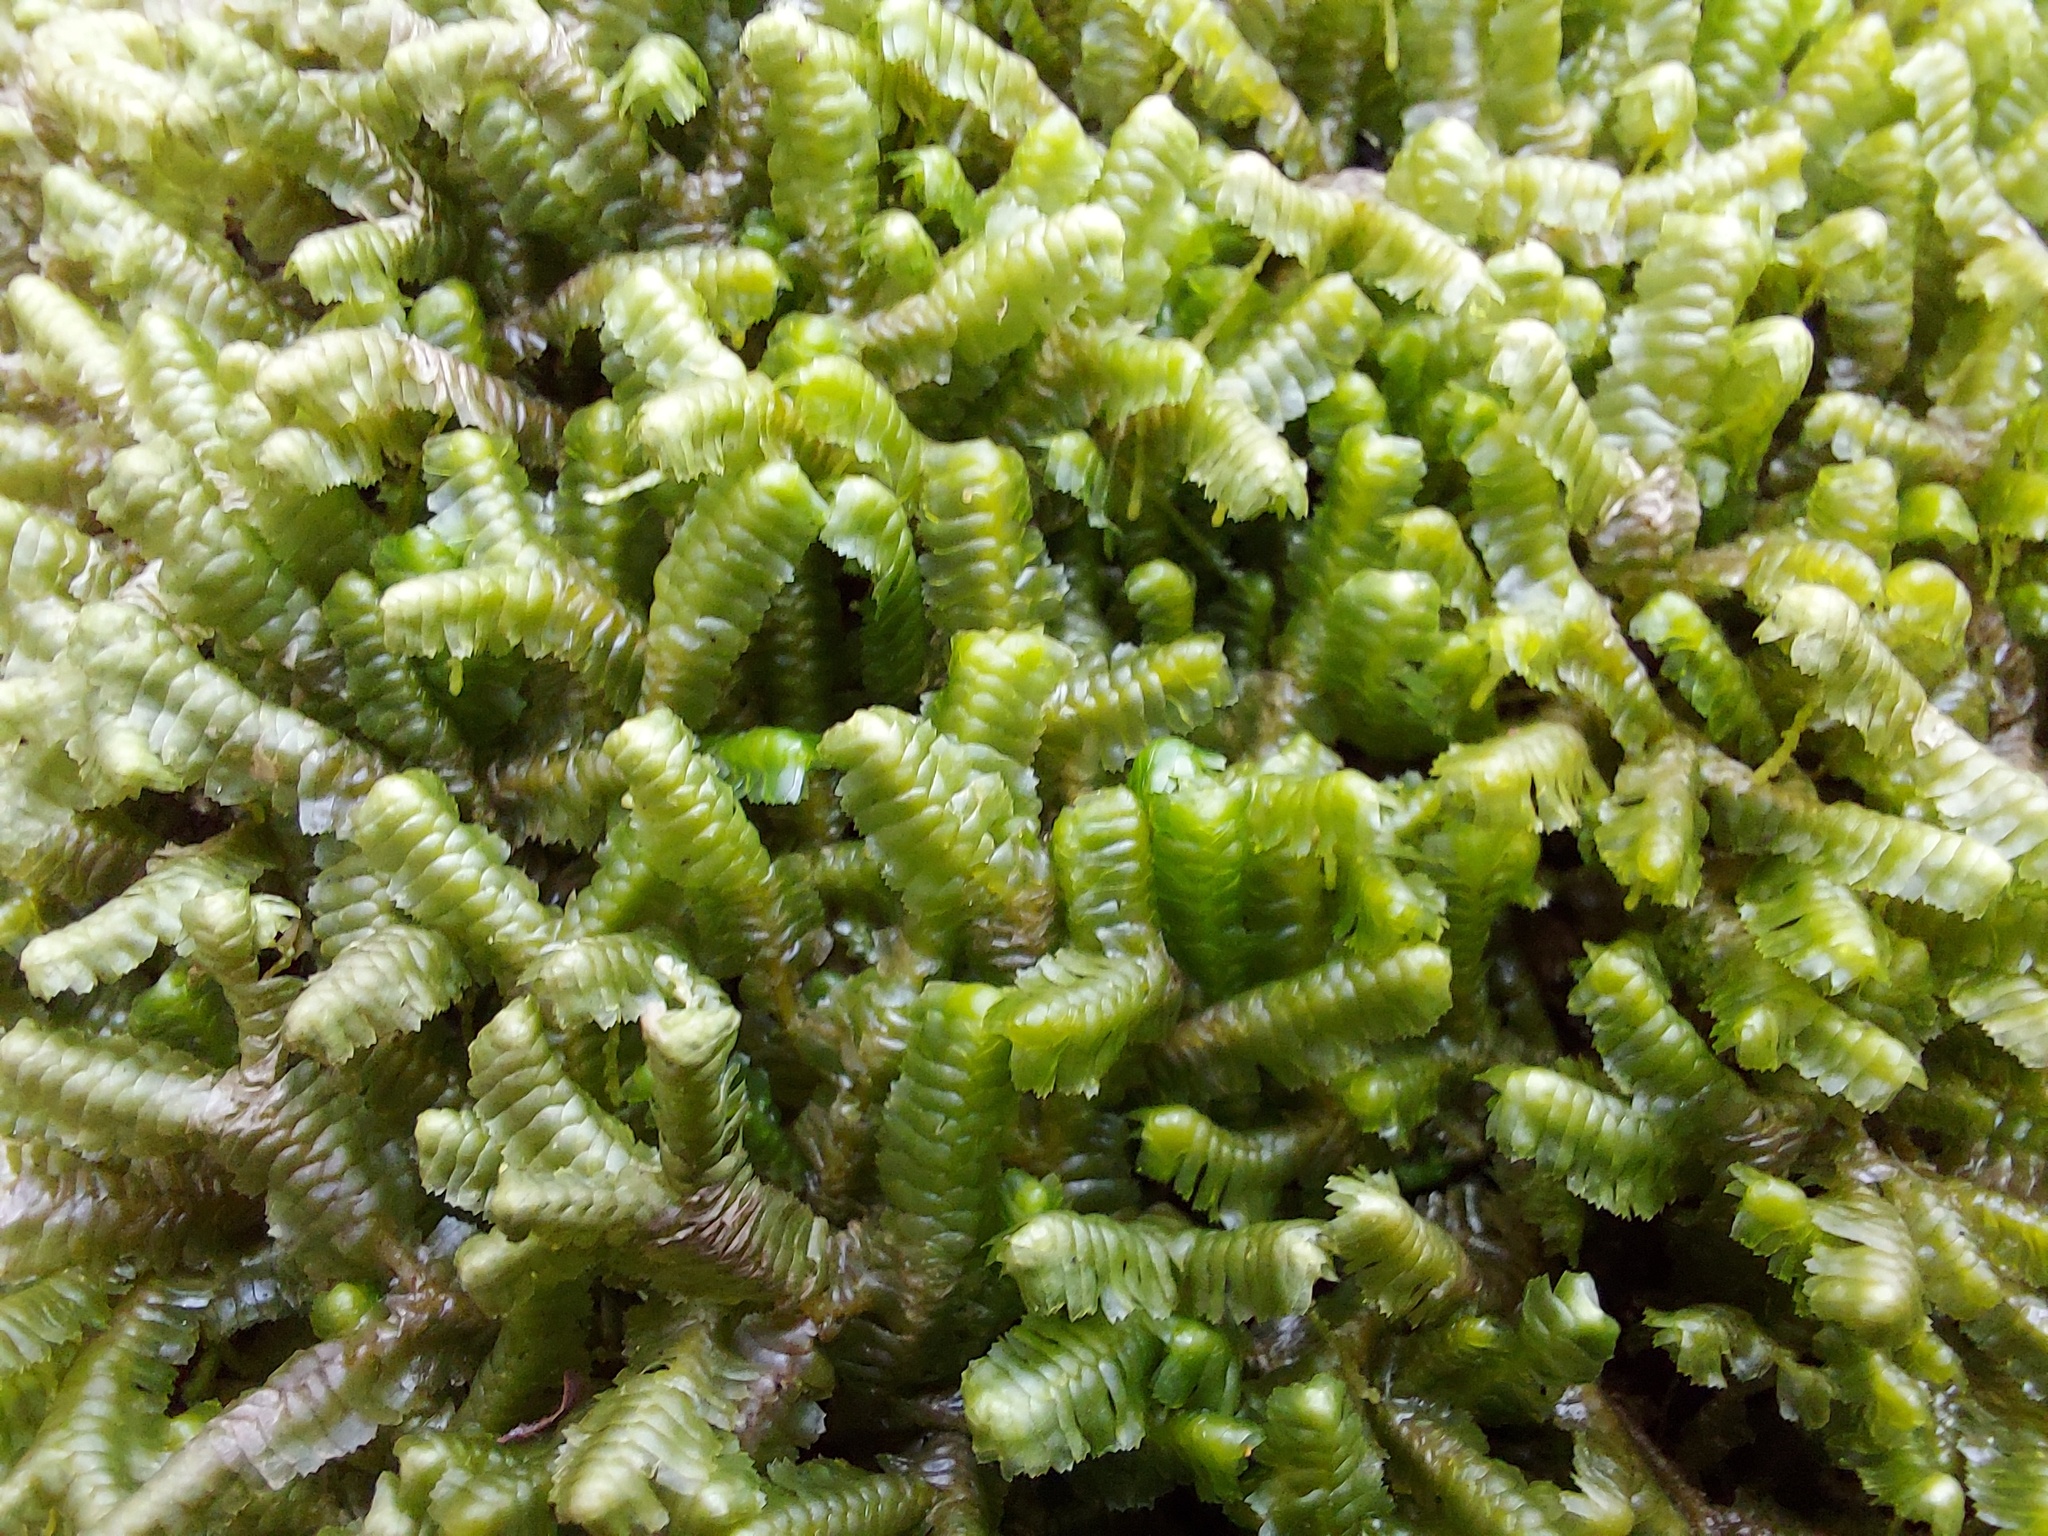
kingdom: Plantae
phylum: Marchantiophyta
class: Jungermanniopsida
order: Jungermanniales
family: Lepidoziaceae
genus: Bazzania
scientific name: Bazzania trilobata
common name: Three-lobed whipwort
